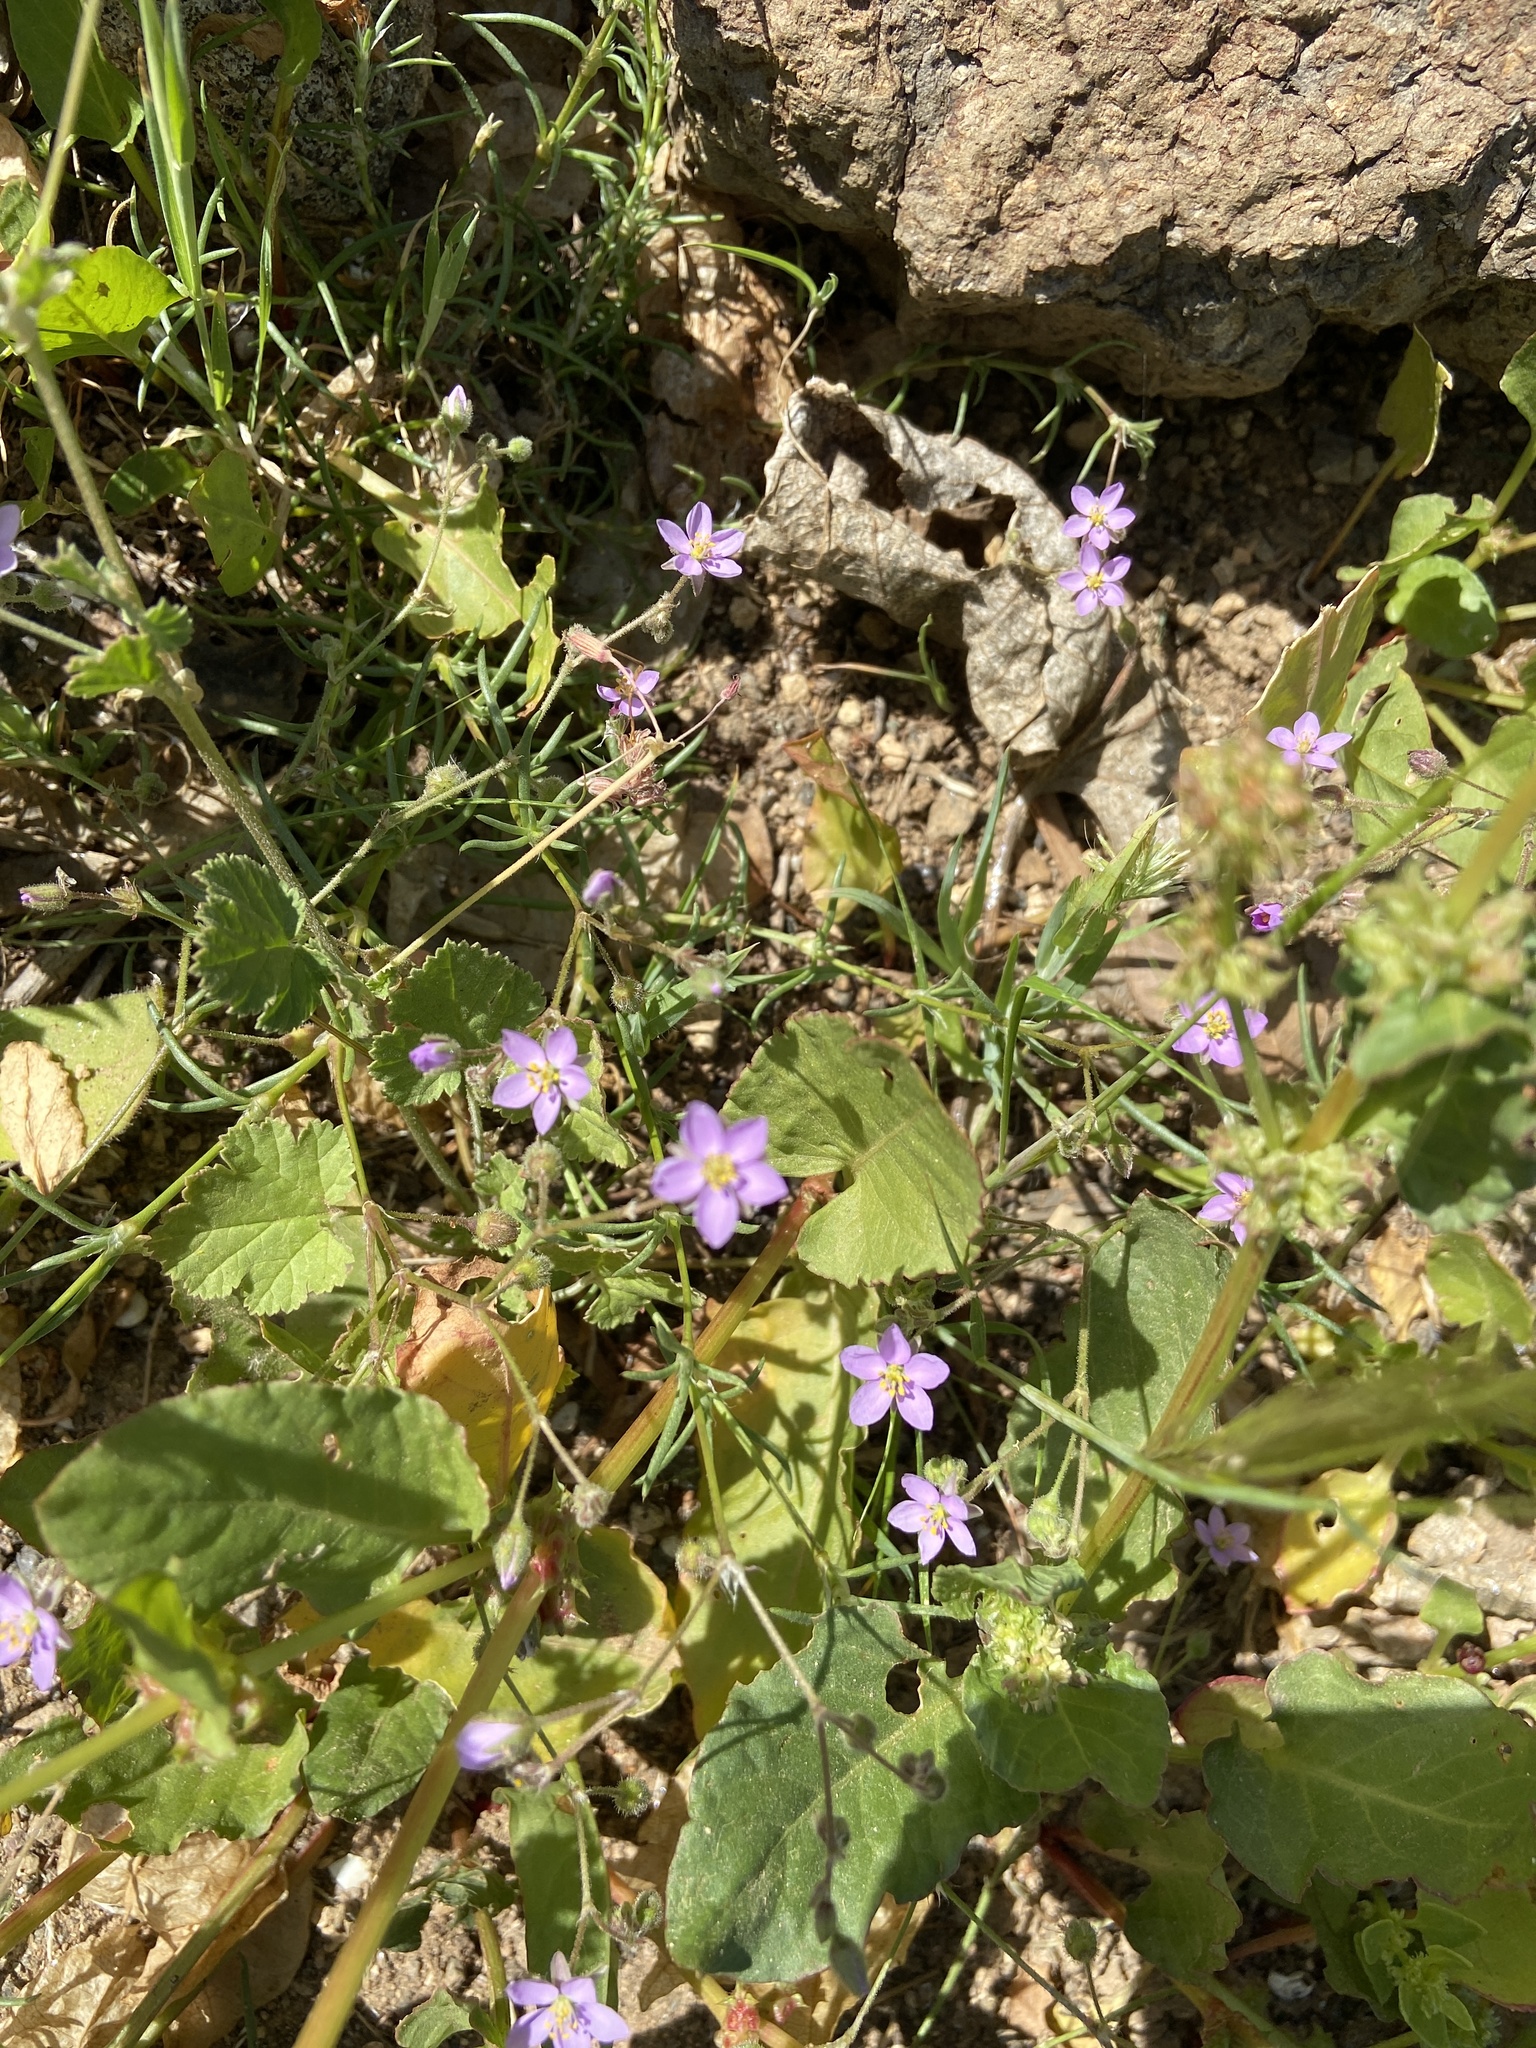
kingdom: Plantae
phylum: Tracheophyta
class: Magnoliopsida
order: Caryophyllales
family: Caryophyllaceae
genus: Spergularia
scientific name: Spergularia fimbriata
